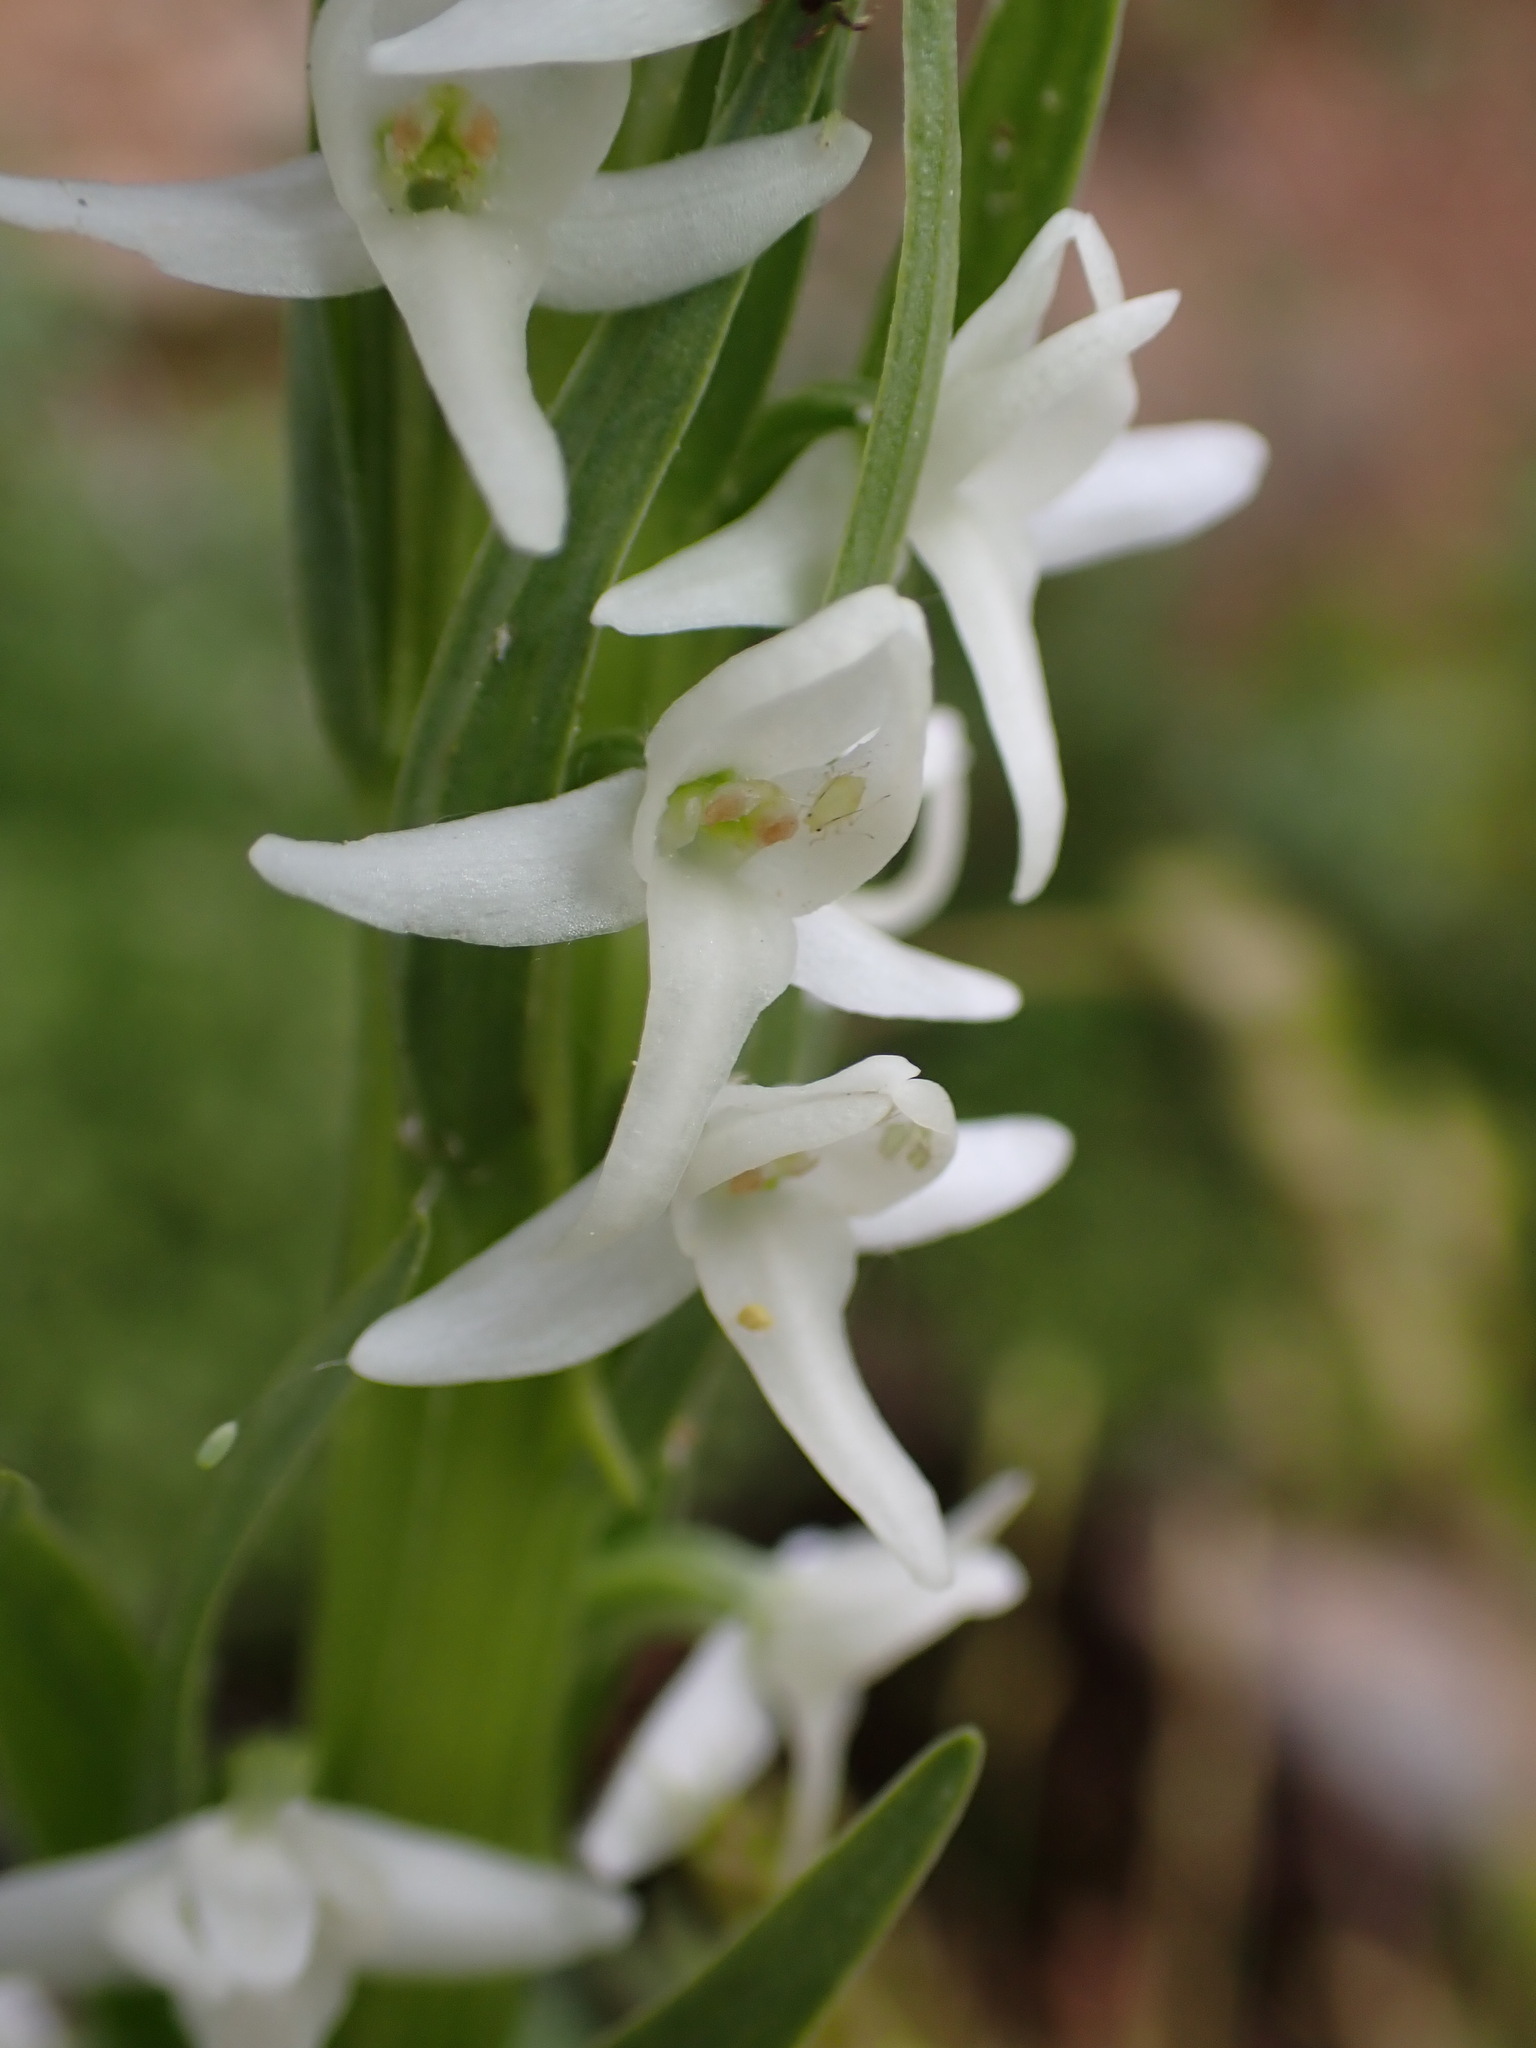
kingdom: Plantae
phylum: Tracheophyta
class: Liliopsida
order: Asparagales
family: Orchidaceae
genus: Platanthera
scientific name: Platanthera dilatata
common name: Bog candles
